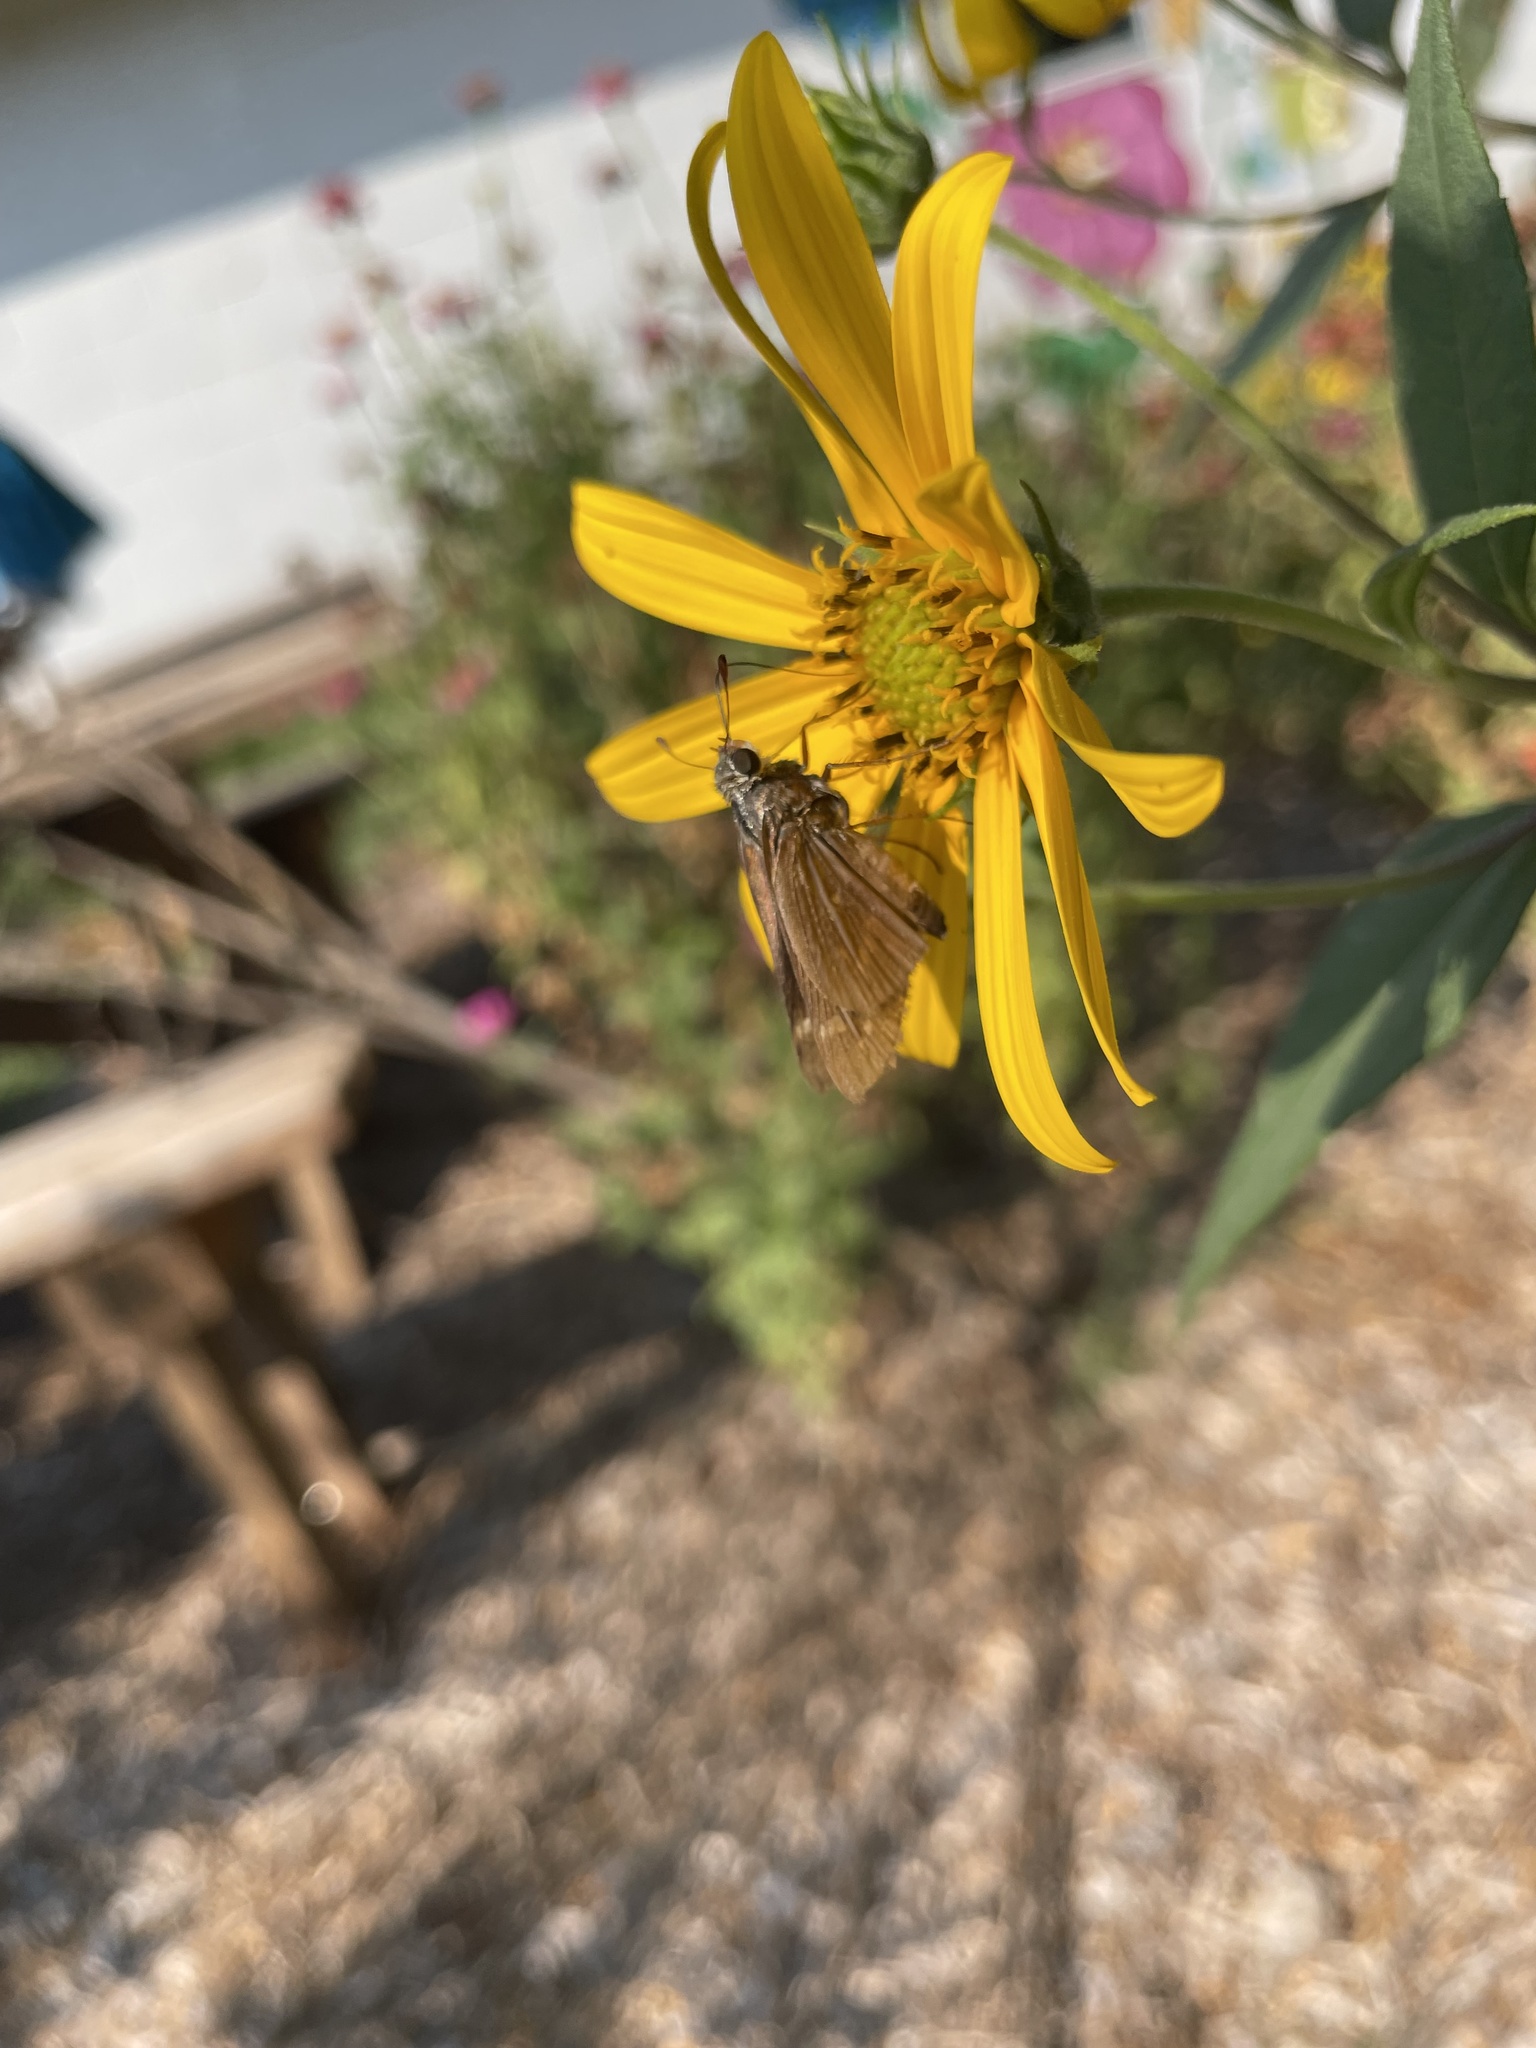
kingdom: Animalia
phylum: Arthropoda
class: Insecta
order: Lepidoptera
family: Hesperiidae
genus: Atalopedes
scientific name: Atalopedes
